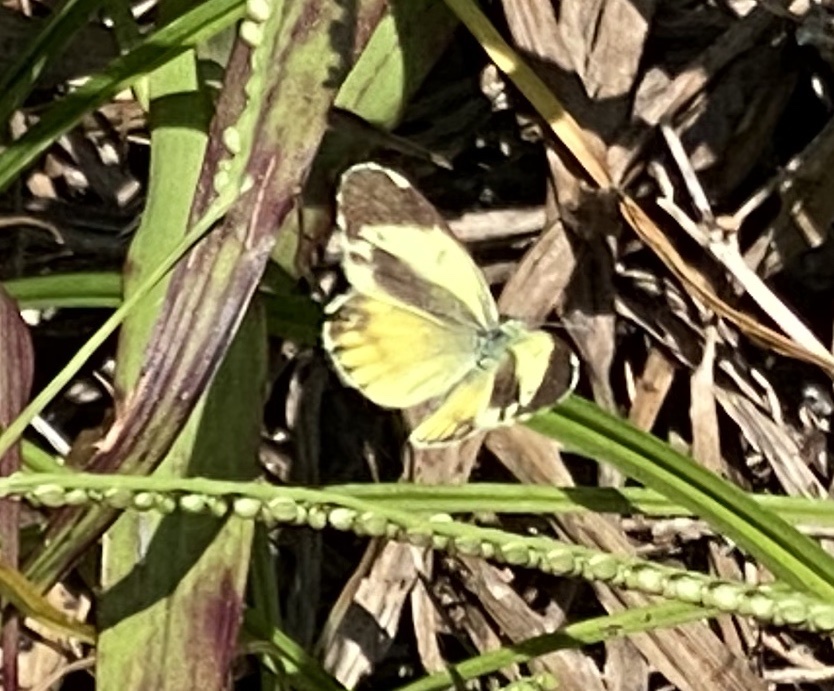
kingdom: Animalia
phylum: Arthropoda
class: Insecta
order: Lepidoptera
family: Pieridae
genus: Nathalis
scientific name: Nathalis iole
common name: Dainty sulphur
